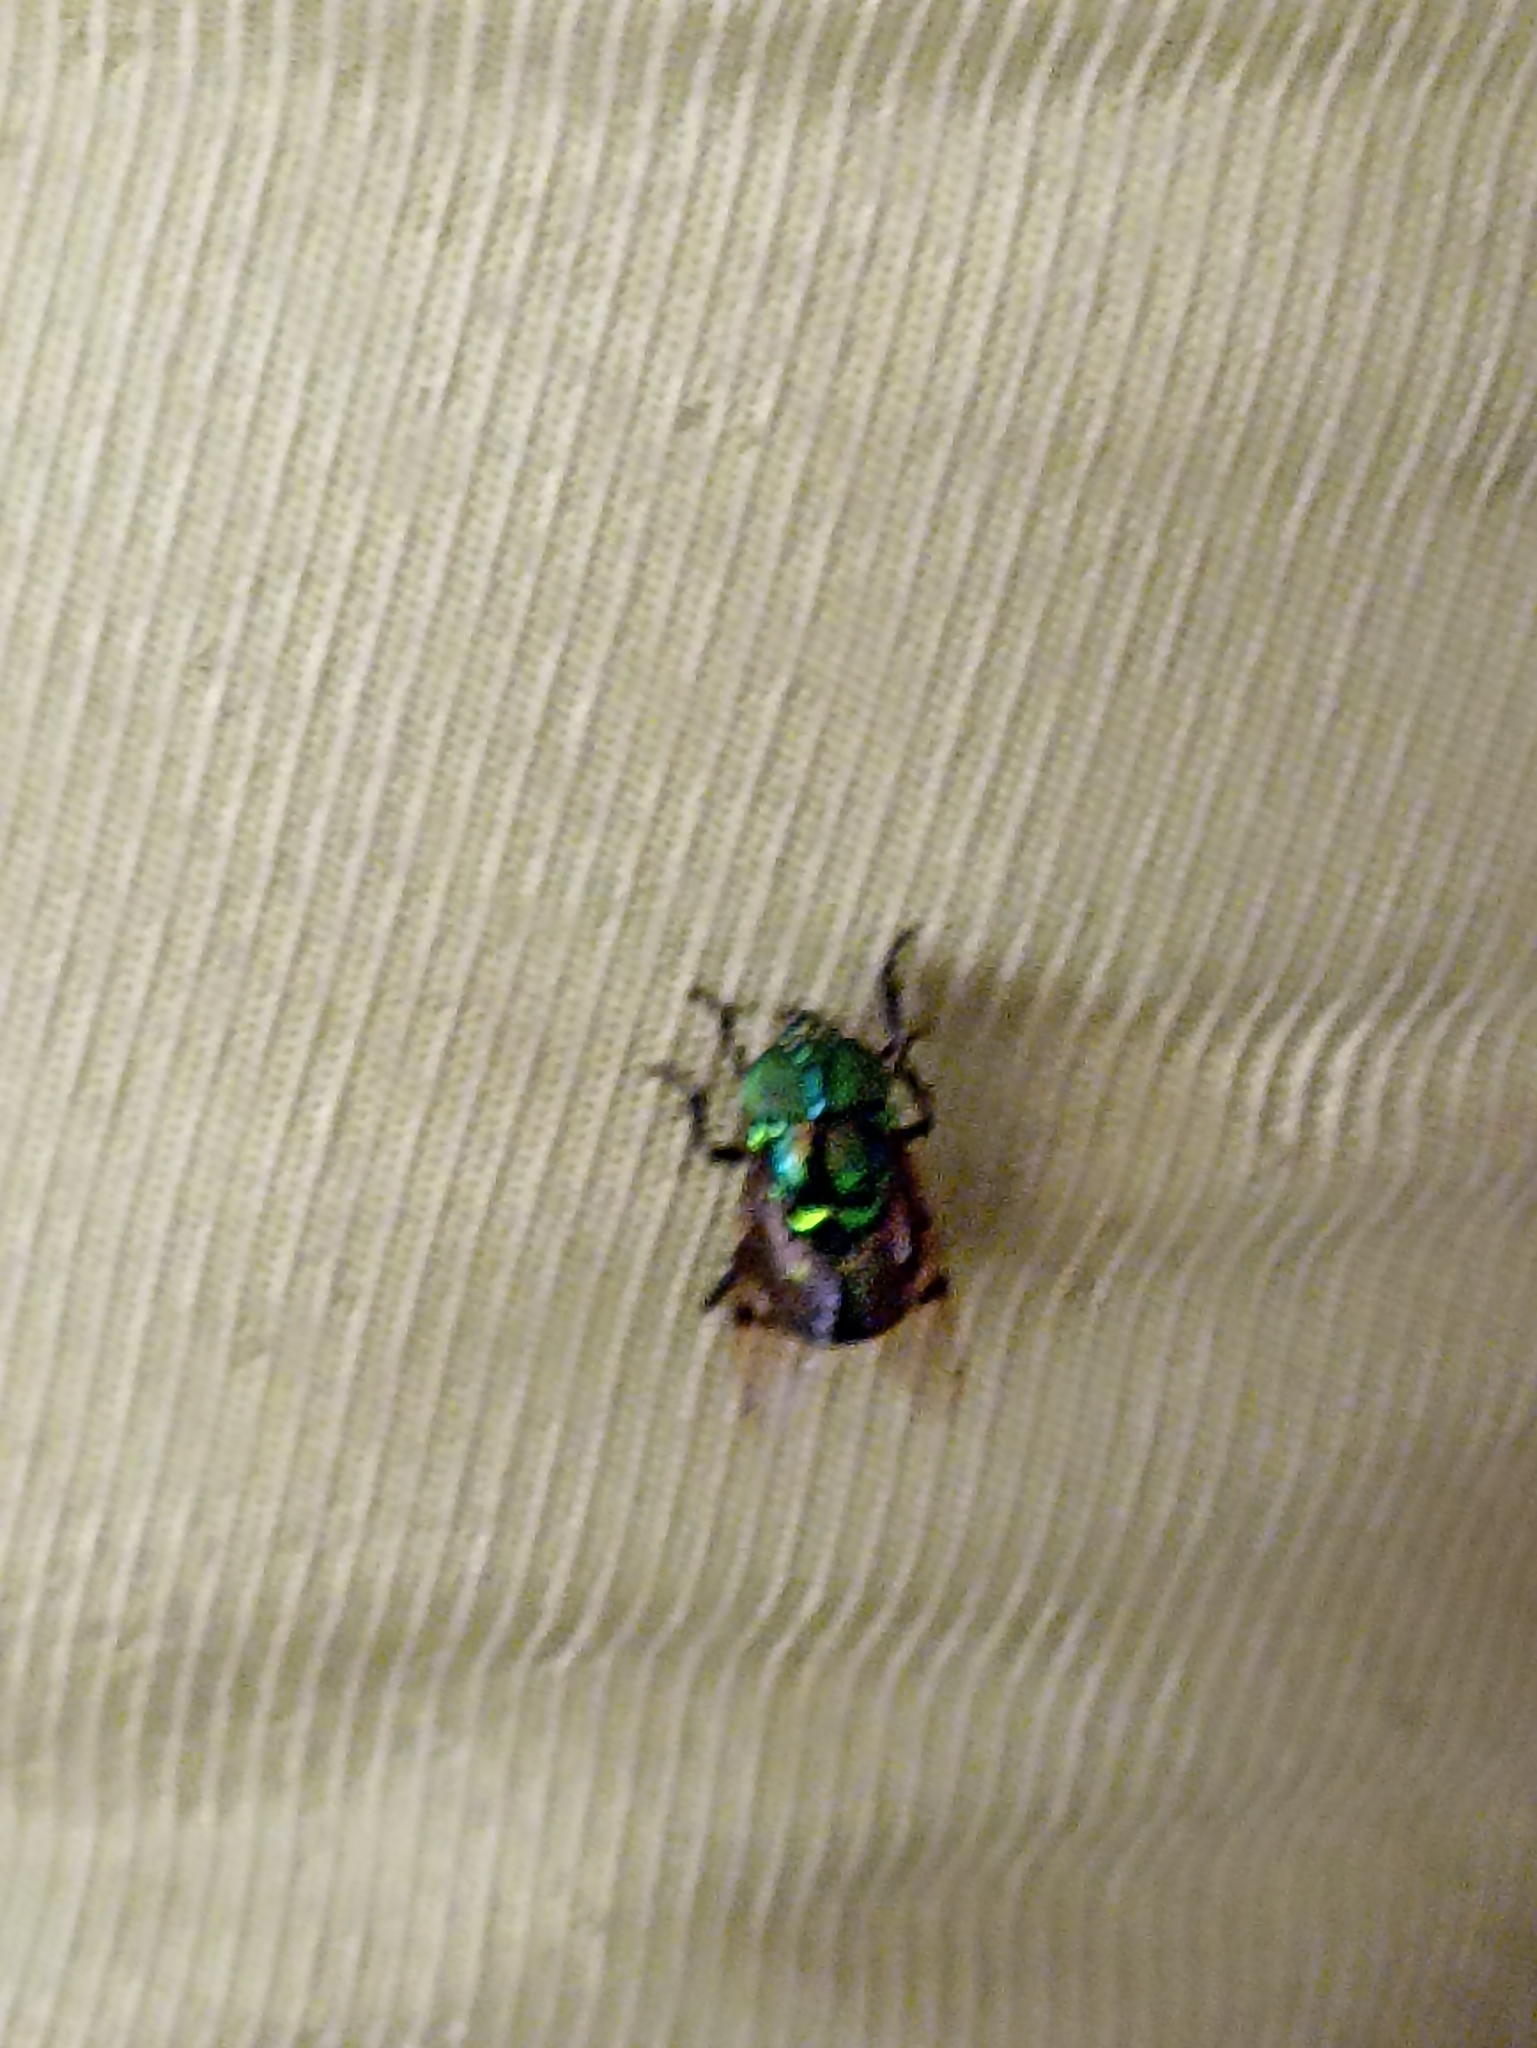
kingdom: Animalia
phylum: Arthropoda
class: Insecta
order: Diptera
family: Syrphidae
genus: Ornidia
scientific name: Ornidia obesa
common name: Syrphid fly
